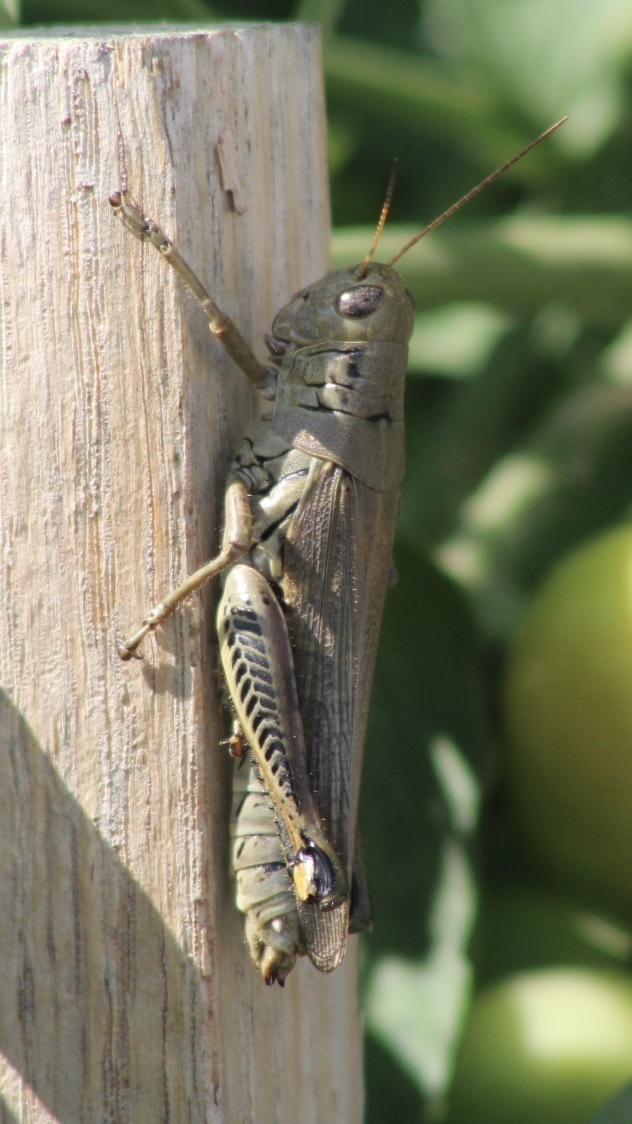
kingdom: Animalia
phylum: Arthropoda
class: Insecta
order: Orthoptera
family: Acrididae
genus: Melanoplus
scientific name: Melanoplus differentialis
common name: Differential grasshopper
